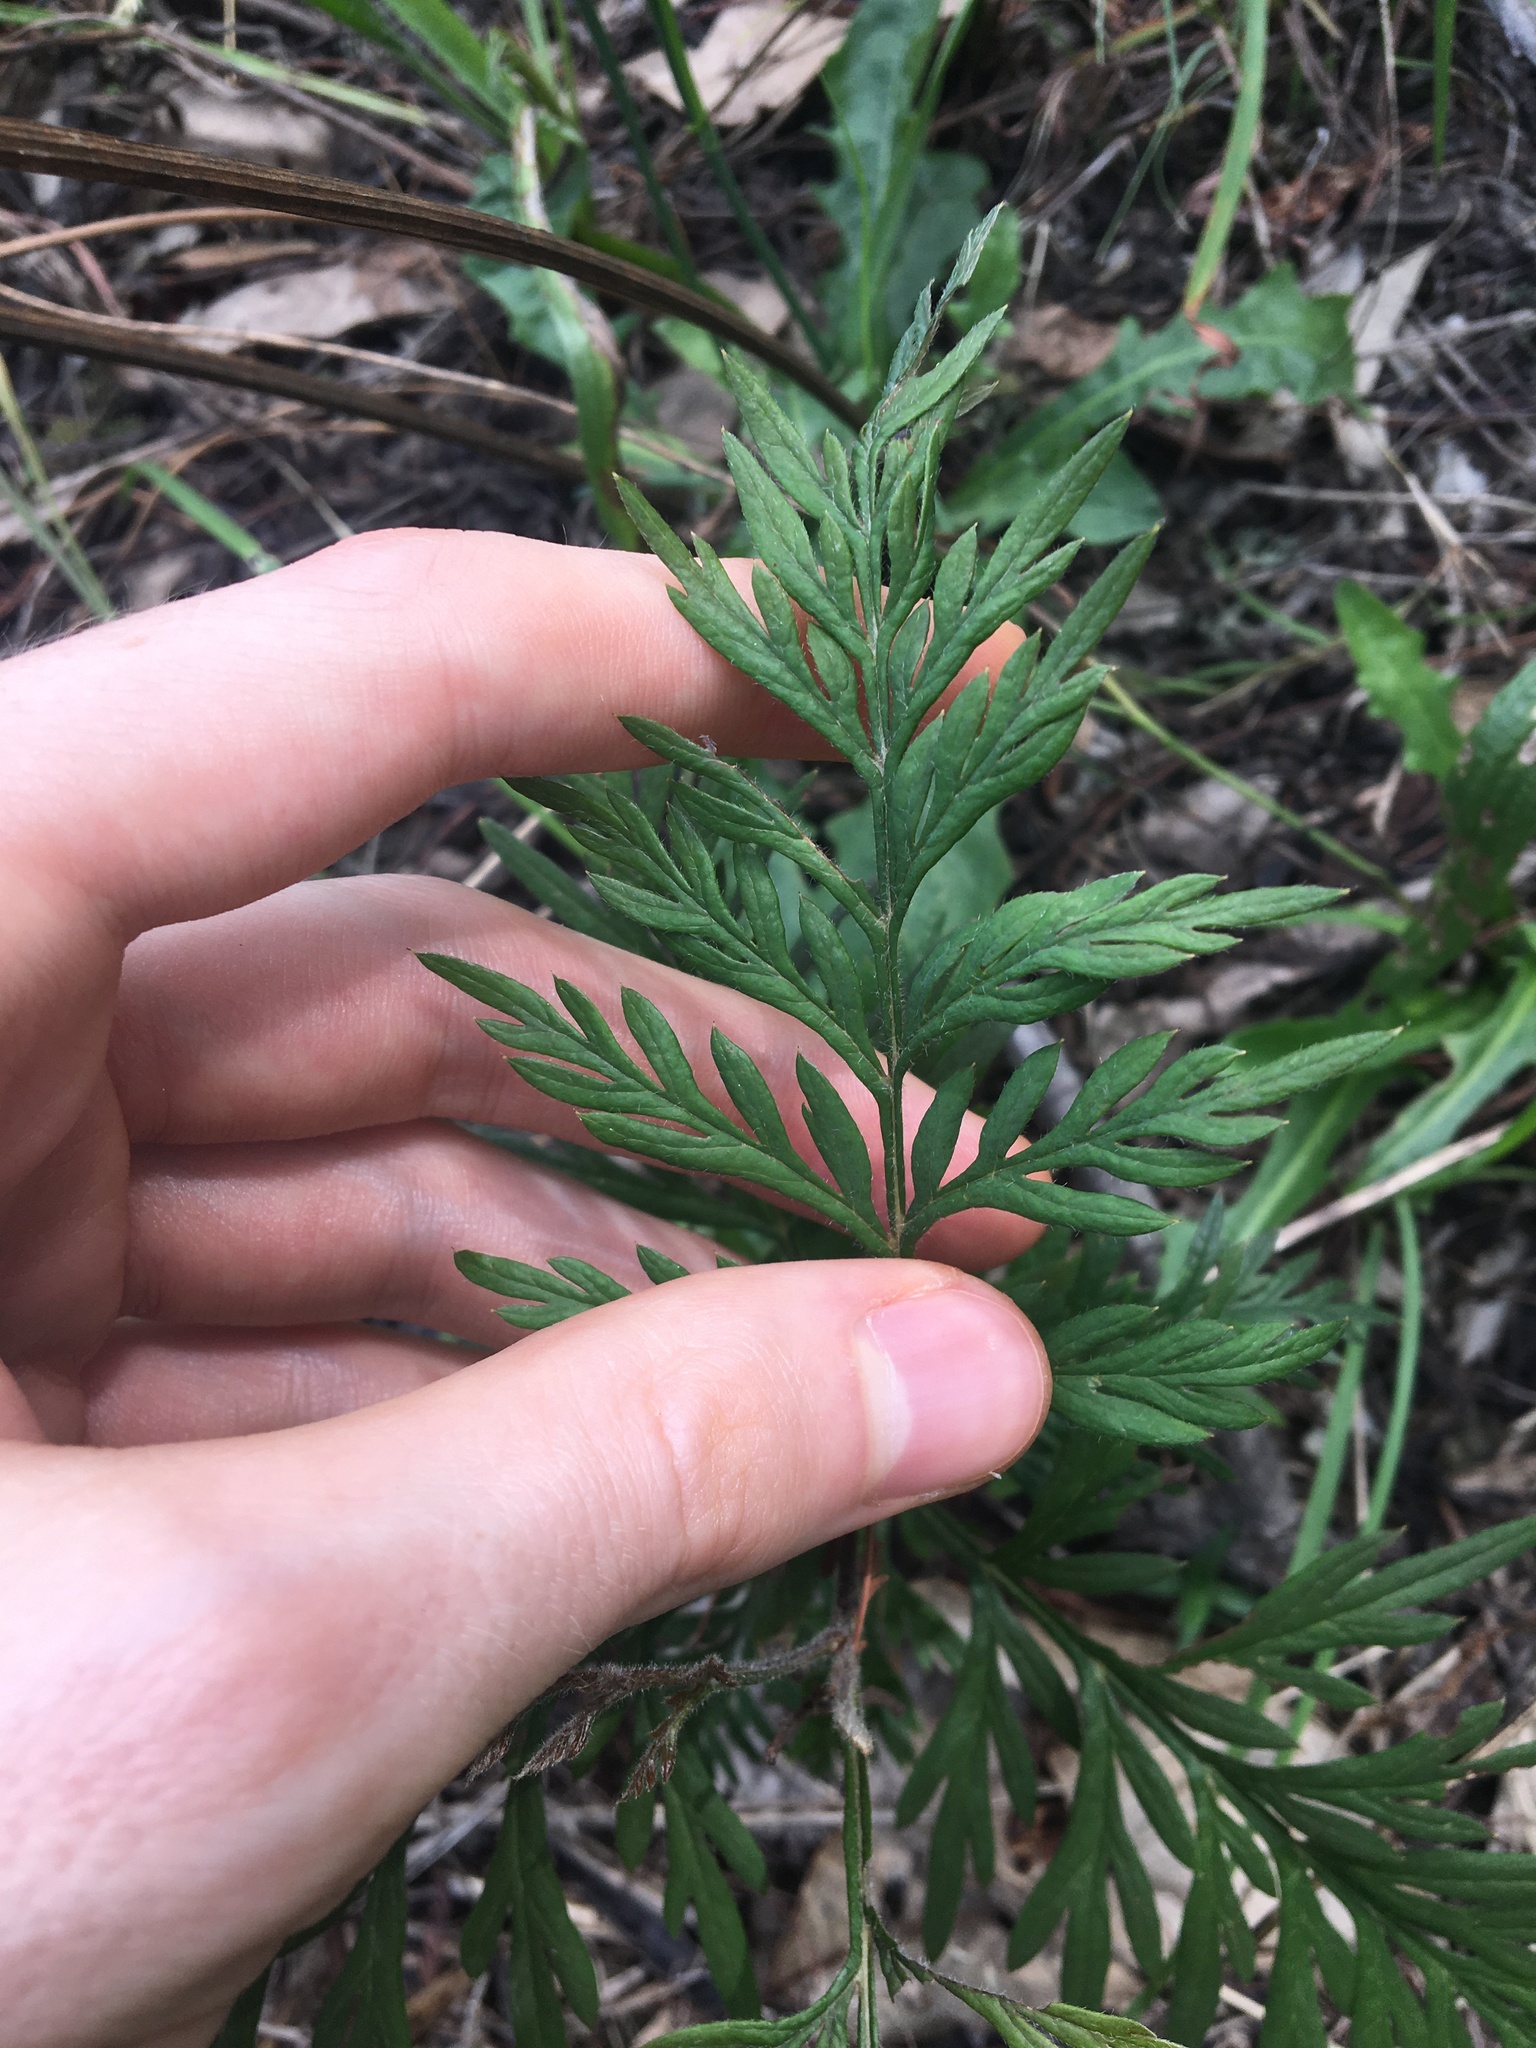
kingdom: Plantae
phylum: Tracheophyta
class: Magnoliopsida
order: Proteales
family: Proteaceae
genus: Grevillea
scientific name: Grevillea robusta
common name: Silkoak
